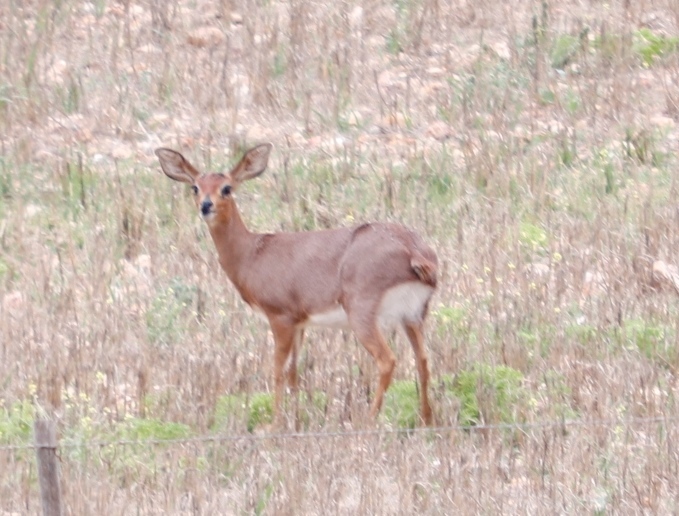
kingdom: Animalia
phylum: Chordata
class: Mammalia
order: Artiodactyla
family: Bovidae
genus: Raphicerus
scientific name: Raphicerus campestris
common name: Steenbok
